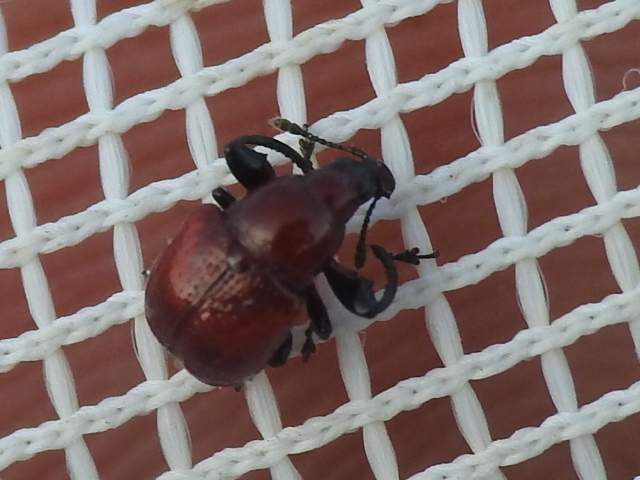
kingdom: Animalia
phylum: Arthropoda
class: Insecta
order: Coleoptera
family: Attelabidae
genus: Homoeolabus
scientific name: Homoeolabus analis
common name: Oak leaf rolling weevil
